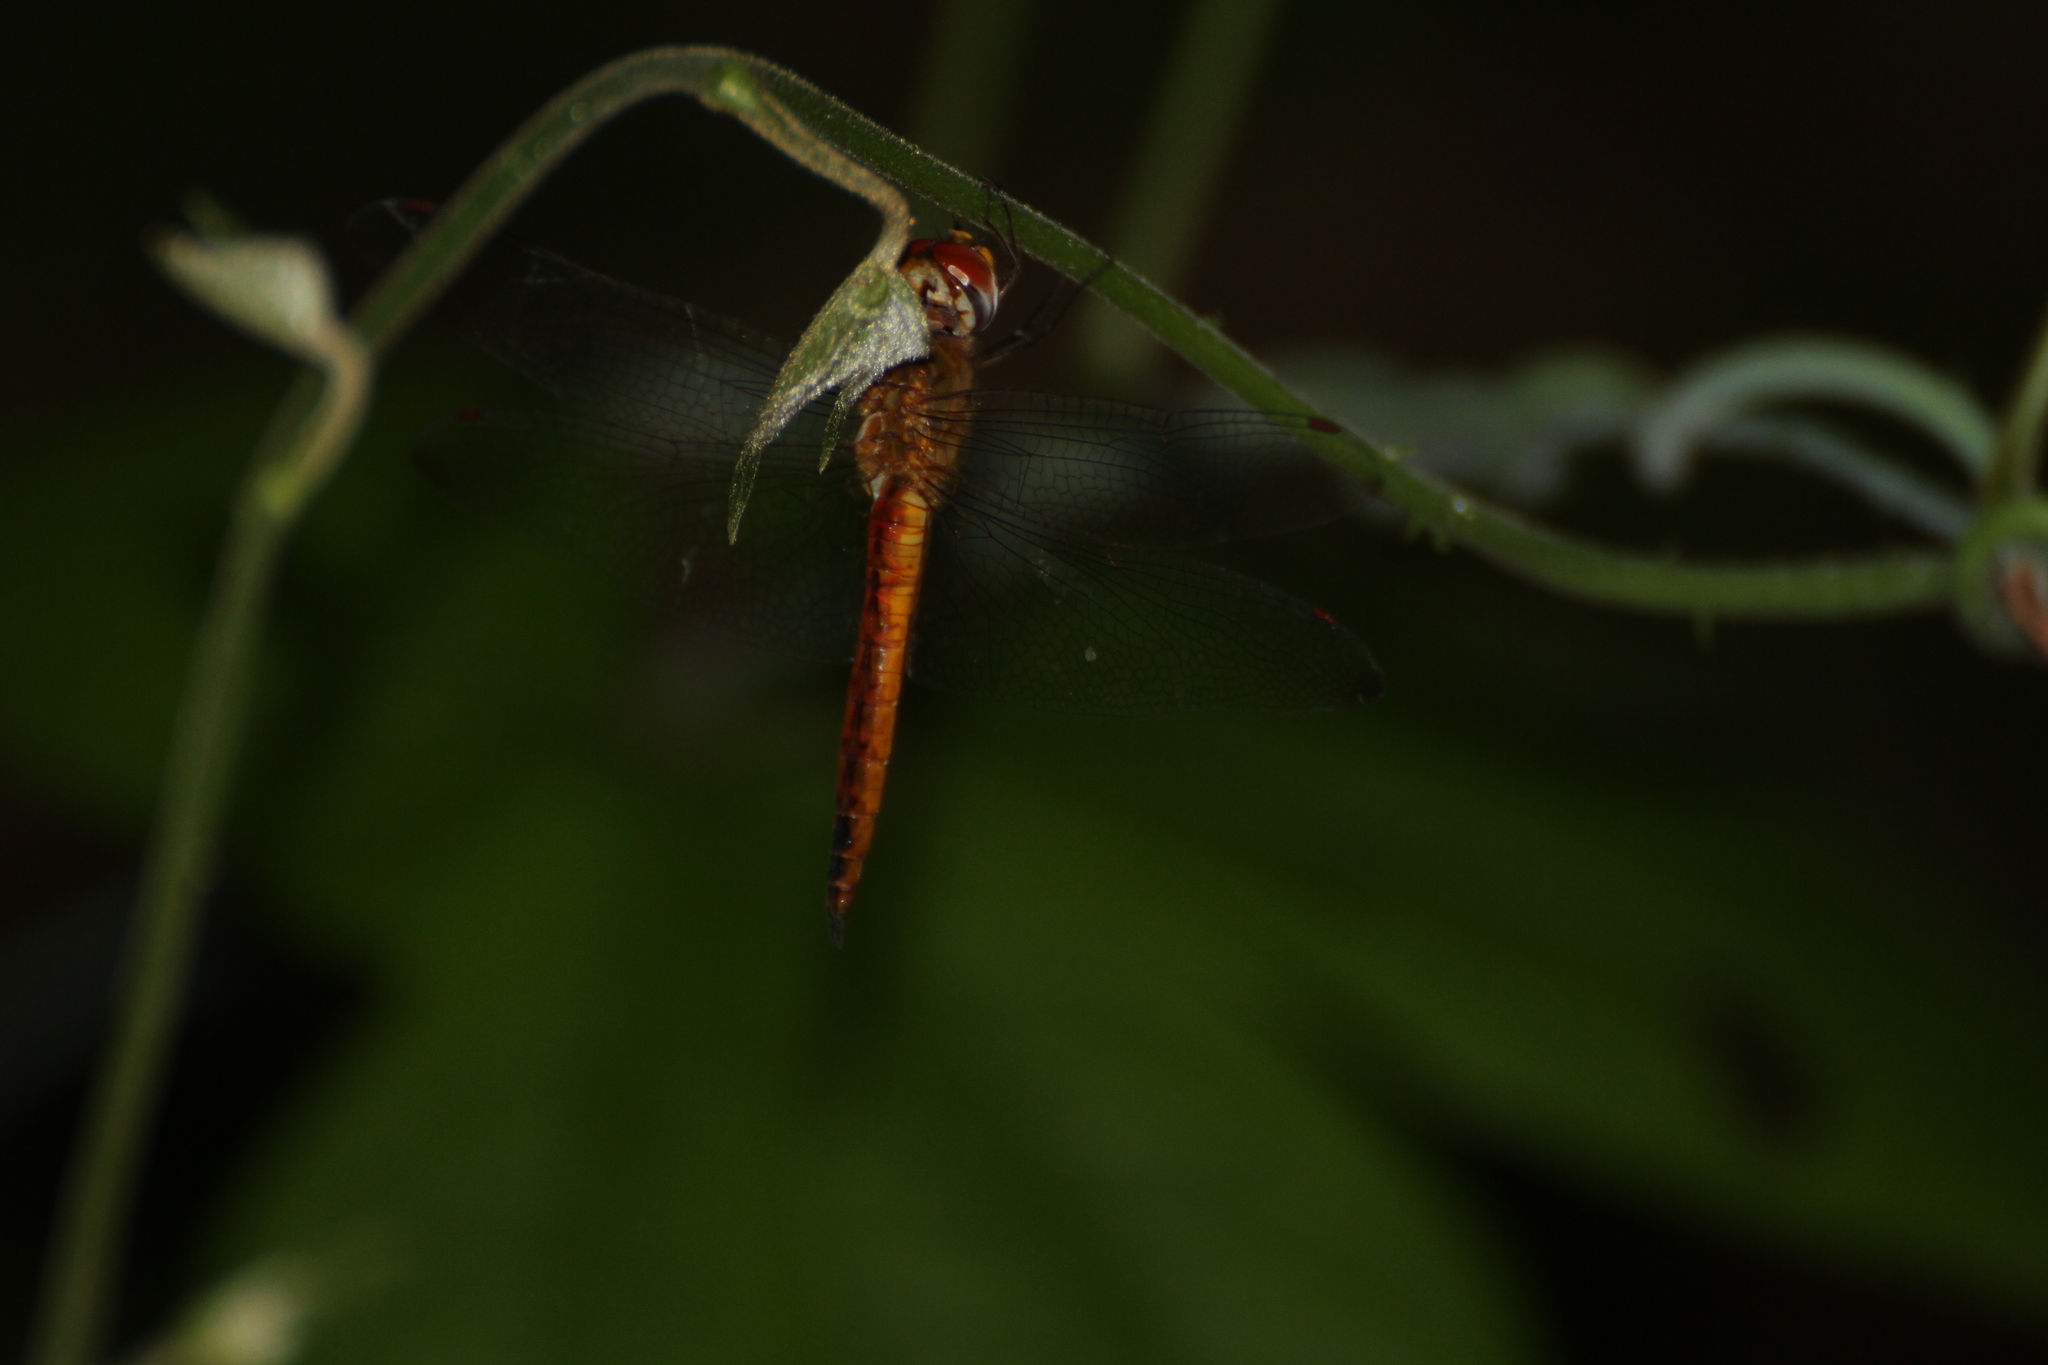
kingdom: Animalia
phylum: Arthropoda
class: Insecta
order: Odonata
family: Libellulidae
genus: Pantala
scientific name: Pantala flavescens
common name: Wandering glider
